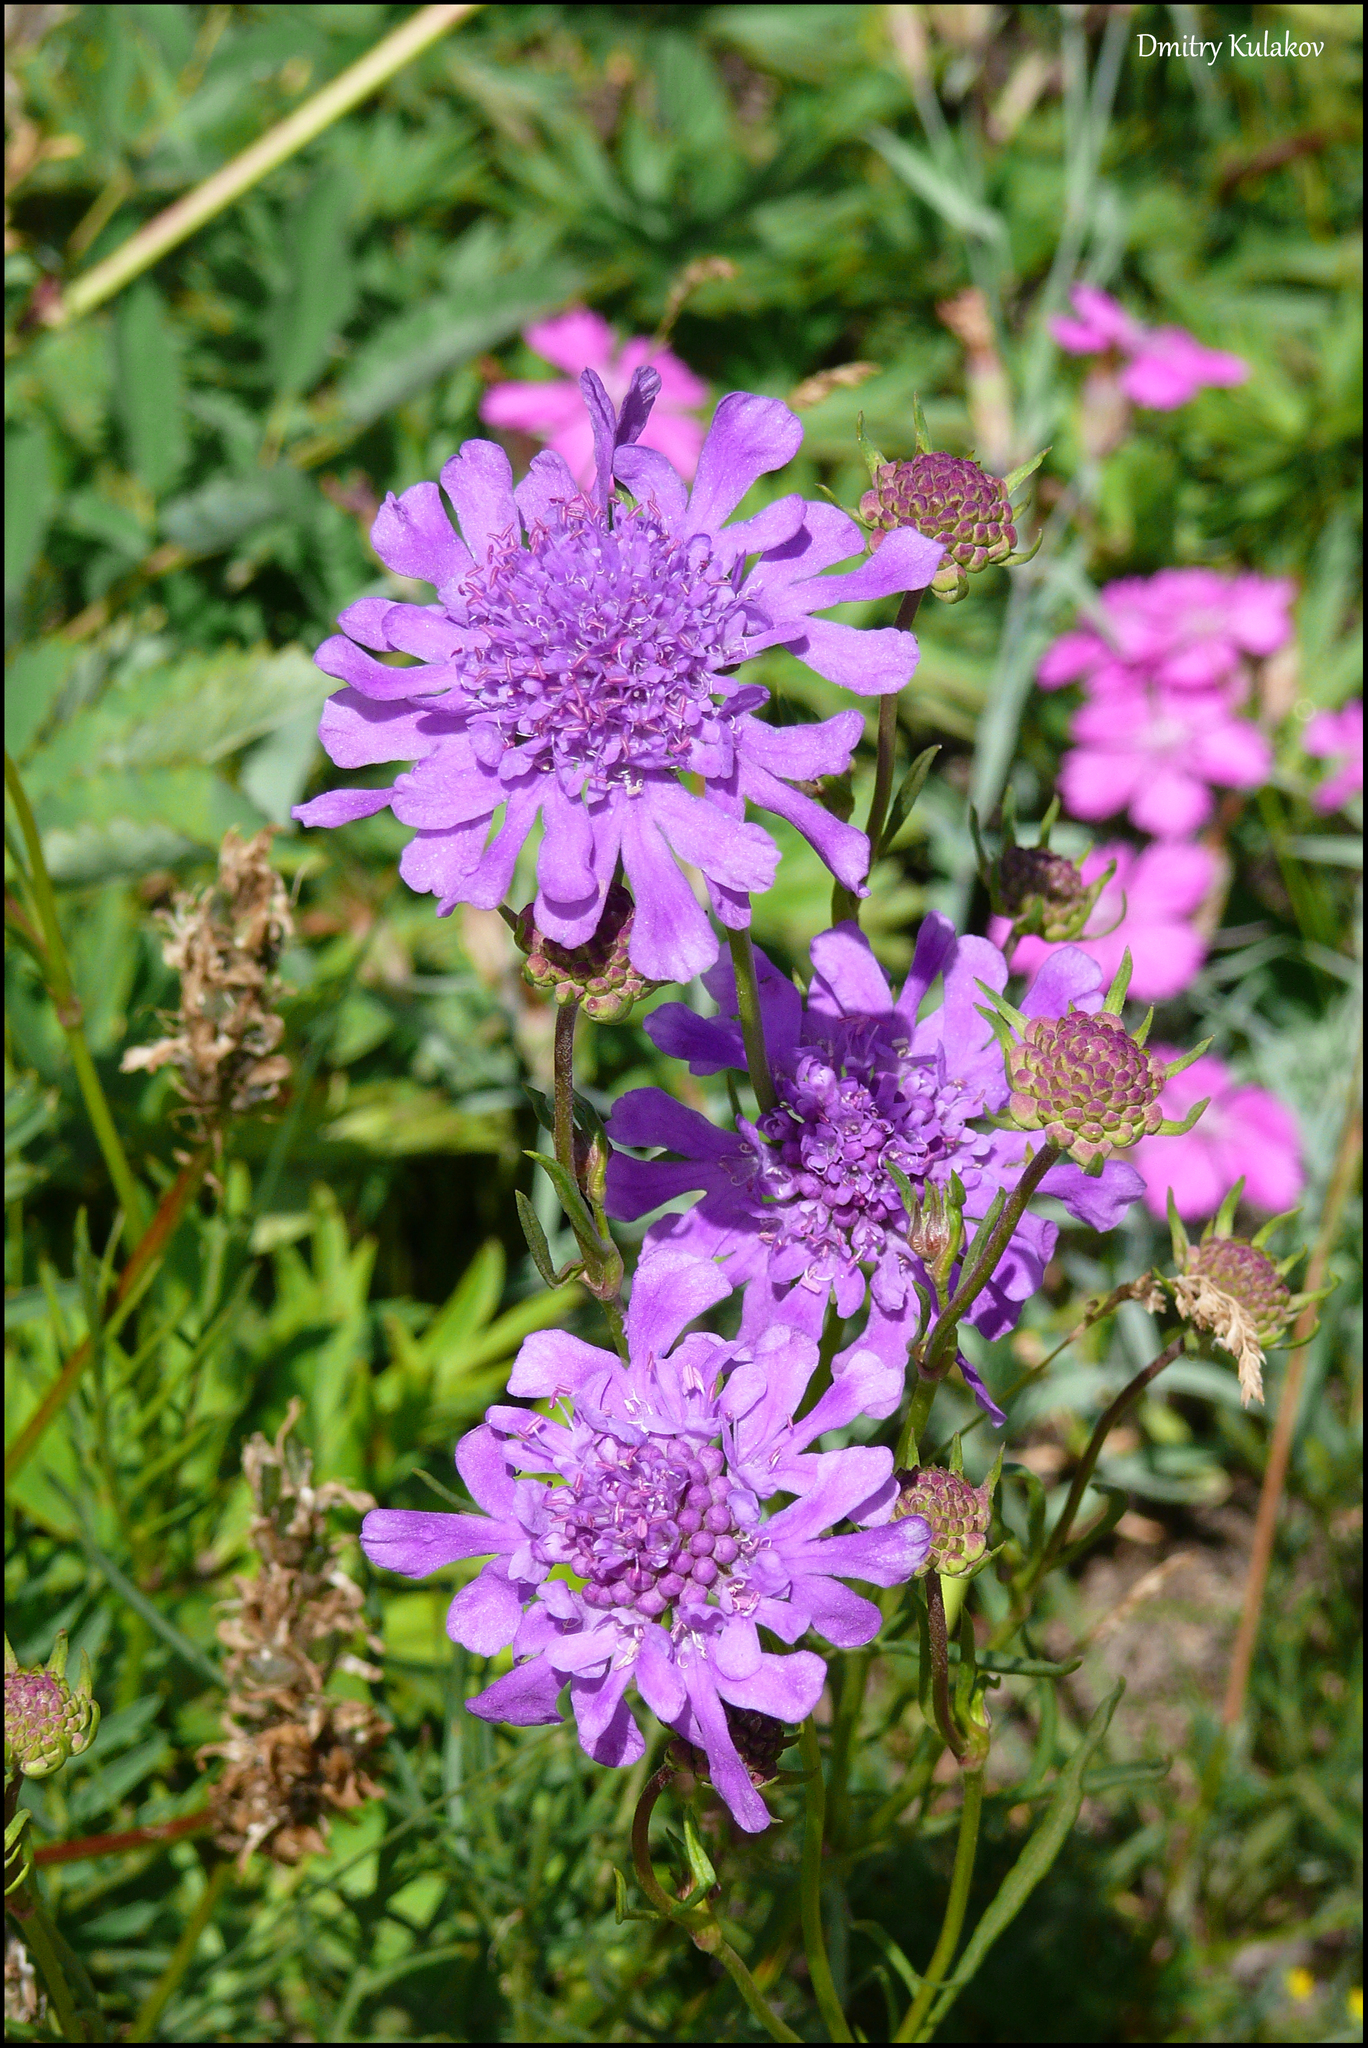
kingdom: Plantae
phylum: Tracheophyta
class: Magnoliopsida
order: Dipsacales
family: Caprifoliaceae
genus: Scabiosa
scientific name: Scabiosa comosa
